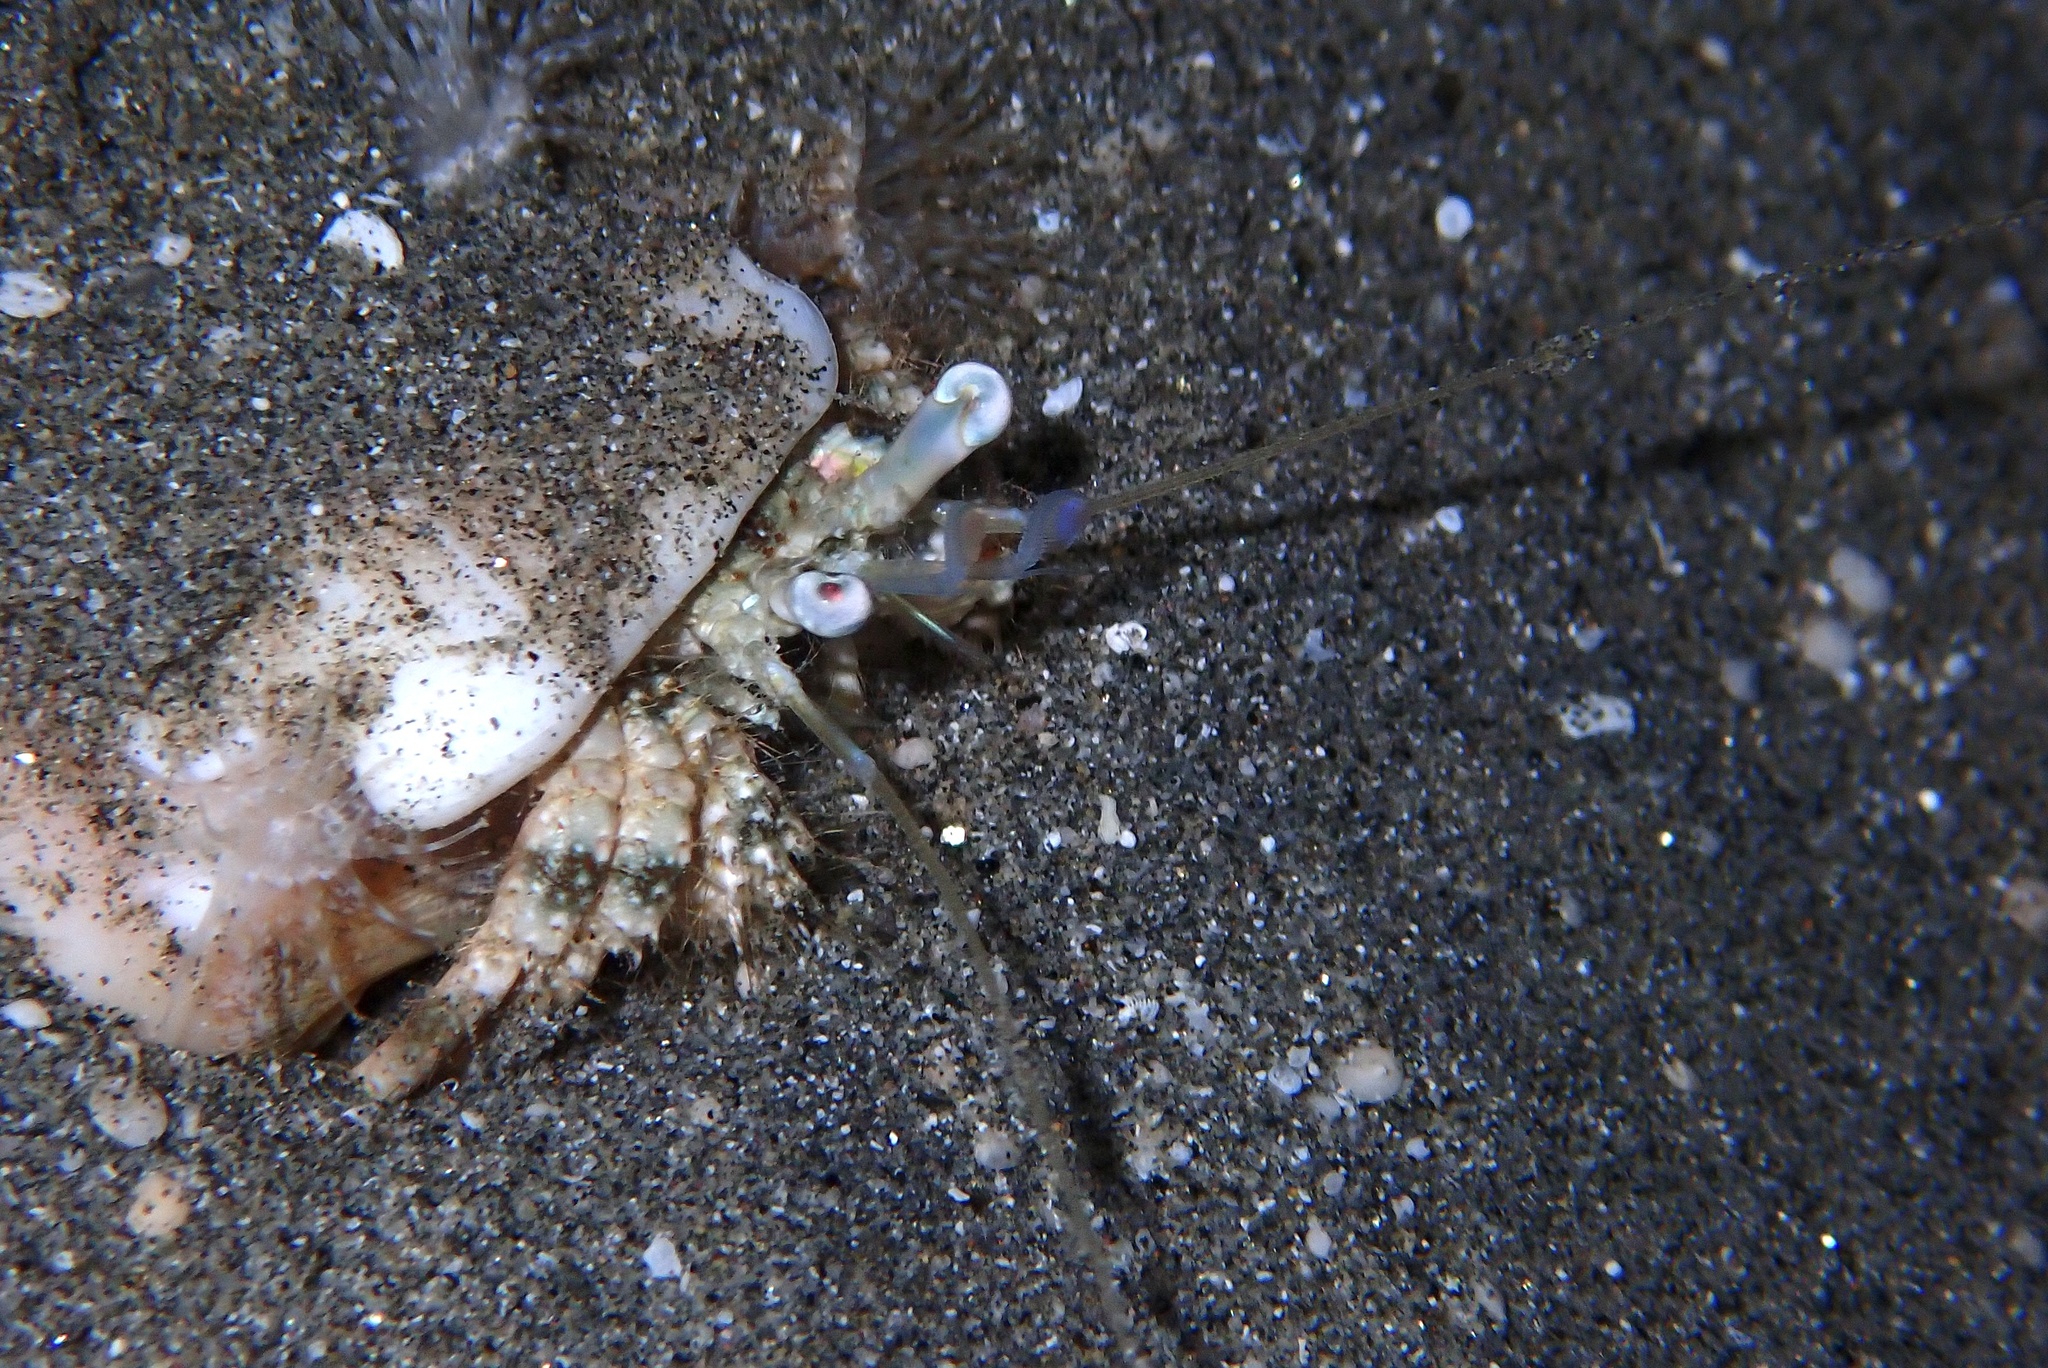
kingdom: Animalia
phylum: Arthropoda
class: Malacostraca
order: Decapoda
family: Diogenidae
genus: Dardanus
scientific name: Dardanus woodmasoni
